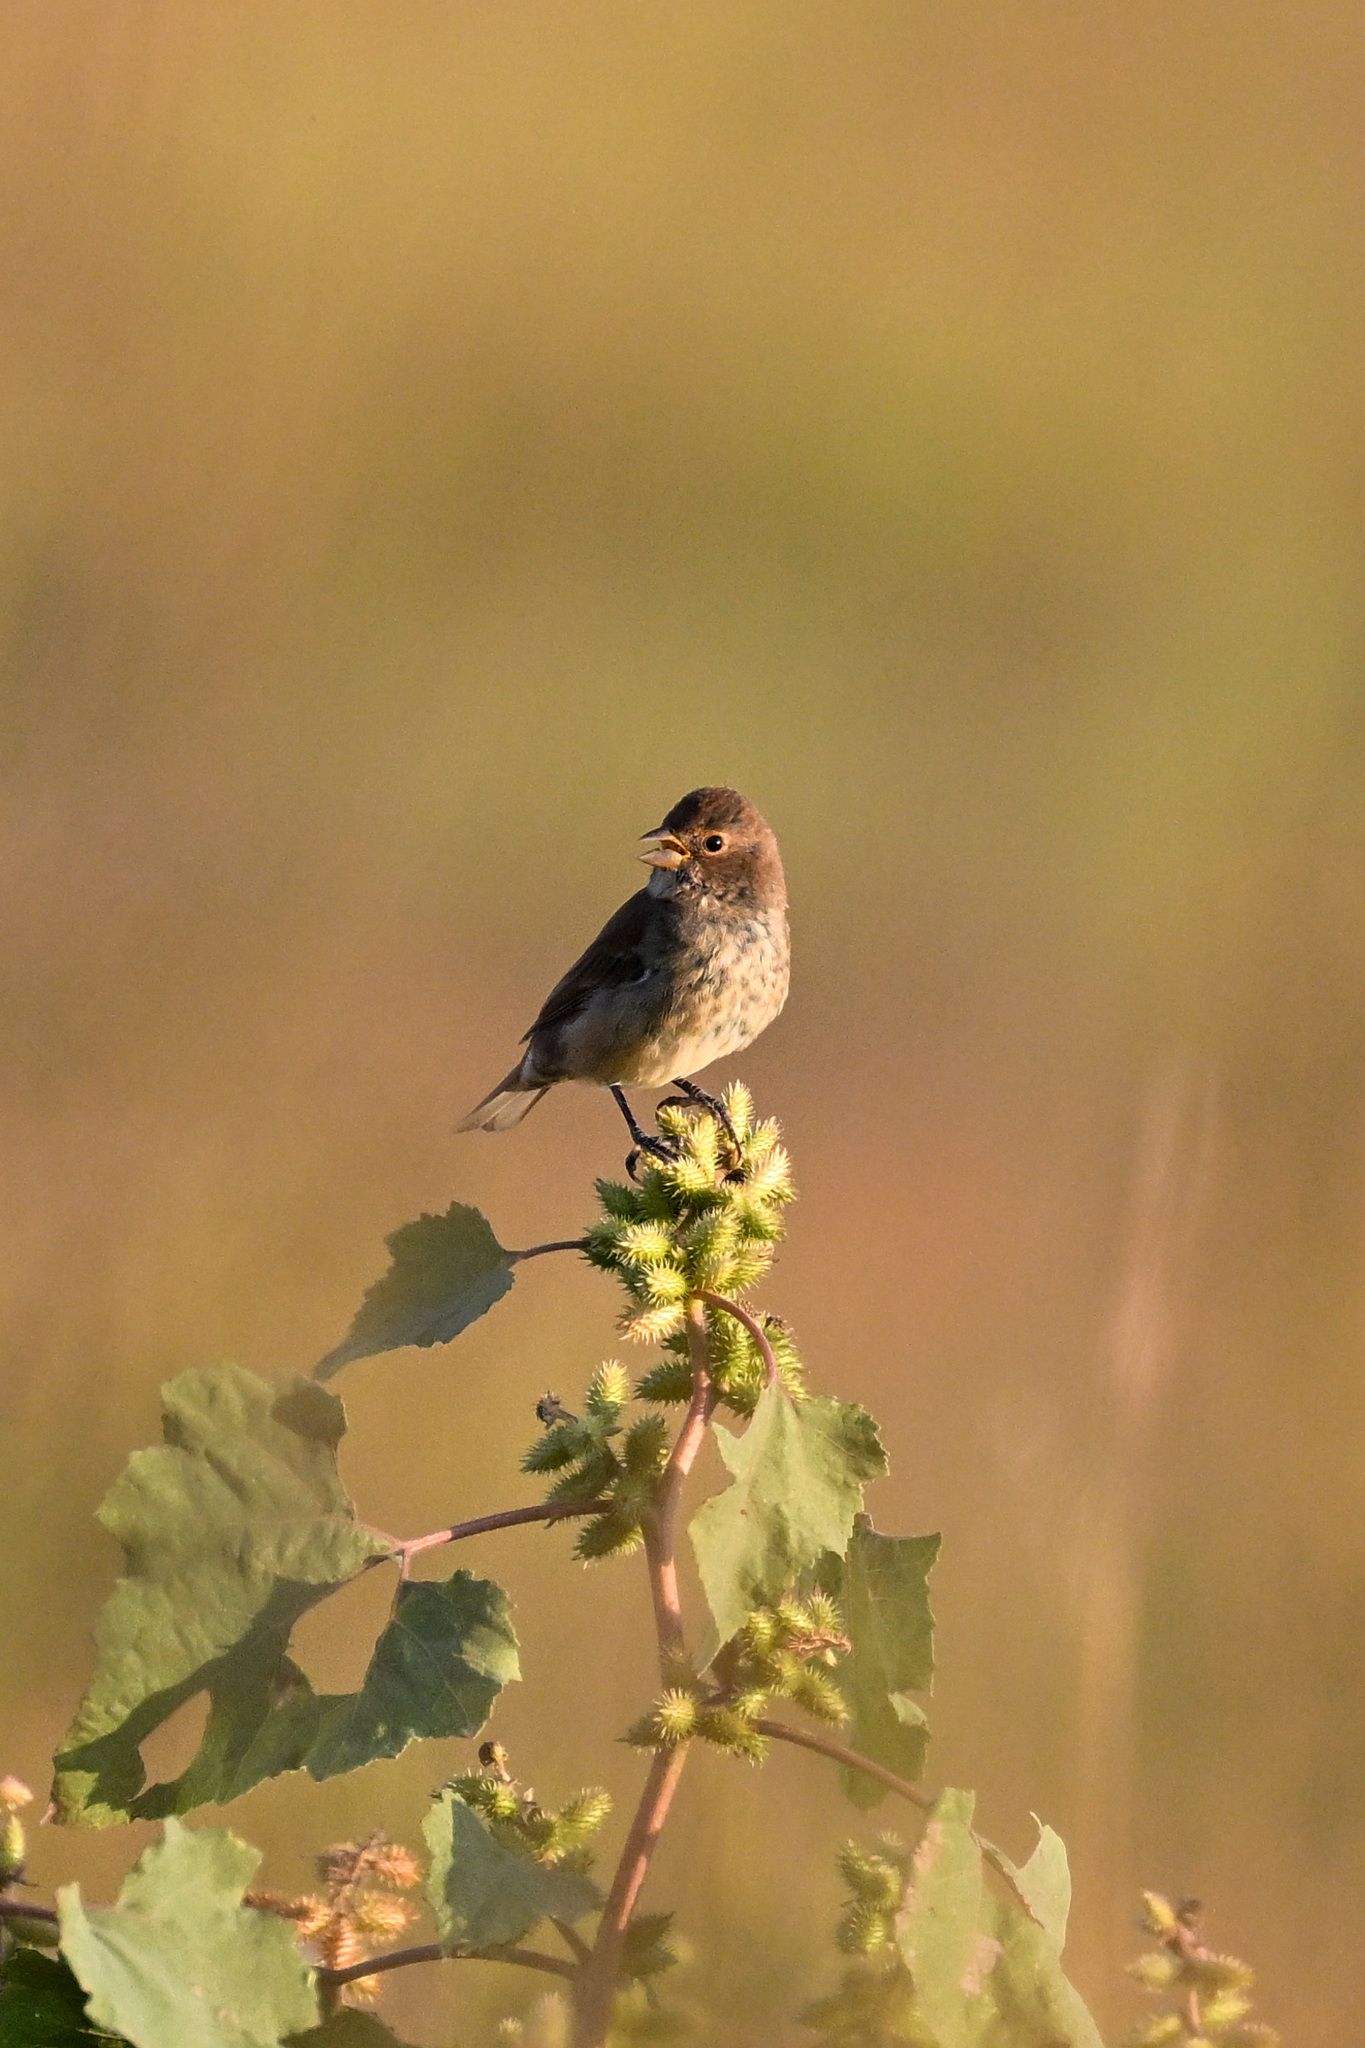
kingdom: Animalia
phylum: Chordata
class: Aves
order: Passeriformes
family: Cardinalidae
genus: Passerina
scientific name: Passerina cyanea
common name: Indigo bunting
